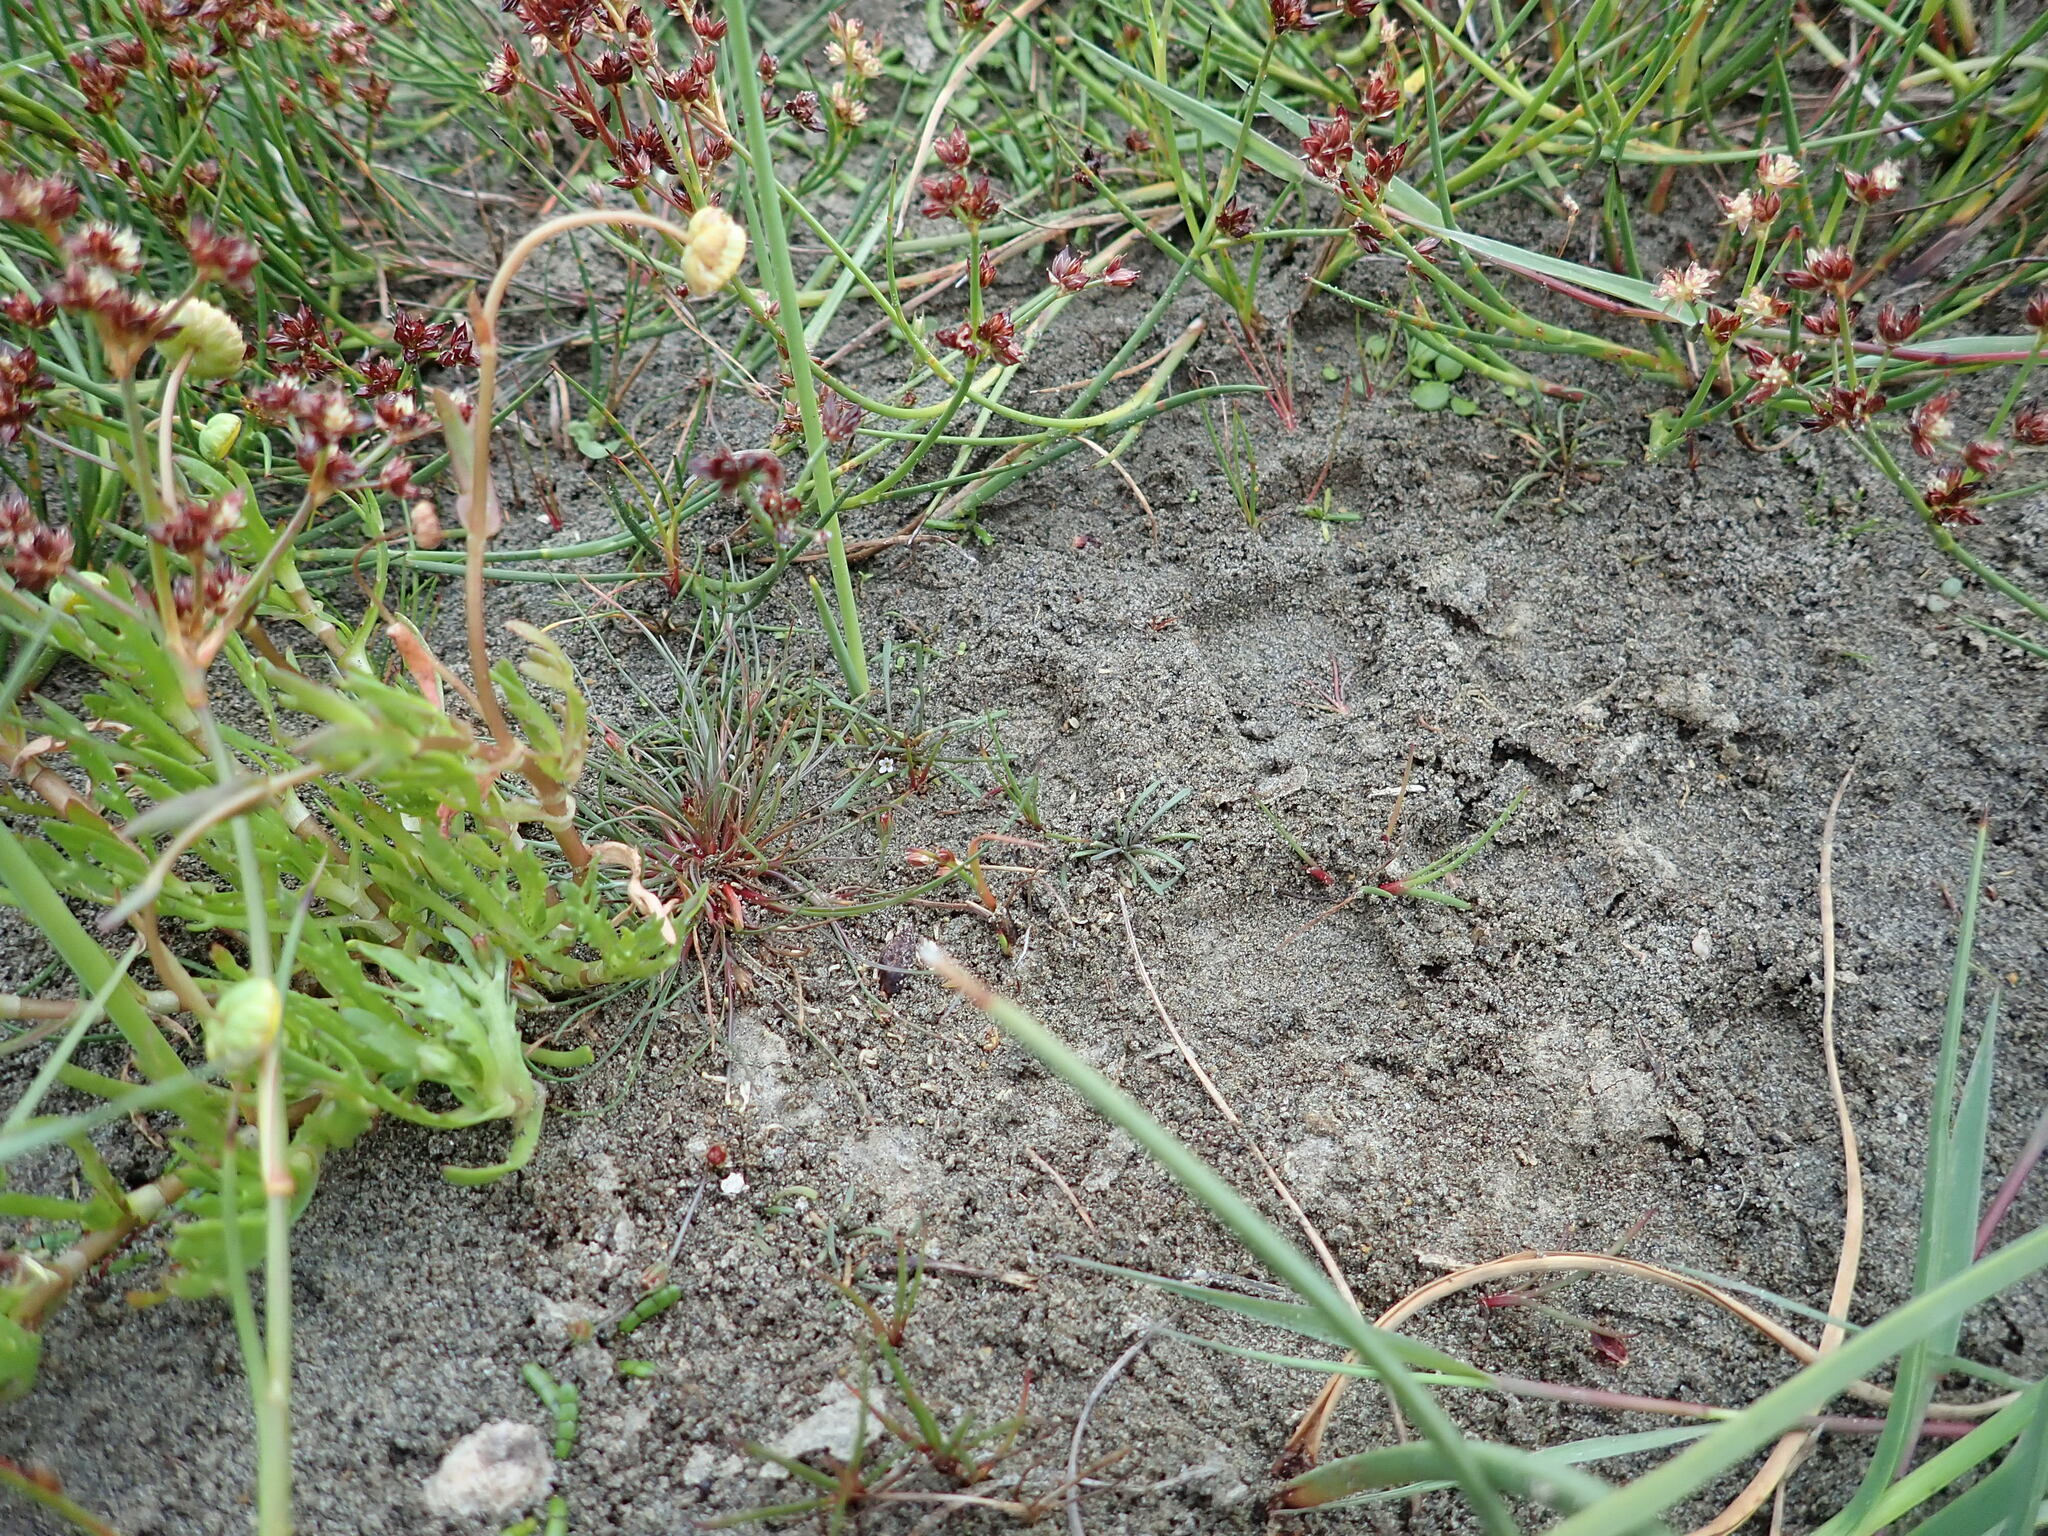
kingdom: Plantae
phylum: Tracheophyta
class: Magnoliopsida
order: Lamiales
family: Scrophulariaceae
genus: Limosella
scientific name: Limosella australis
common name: Welsh mudwort
